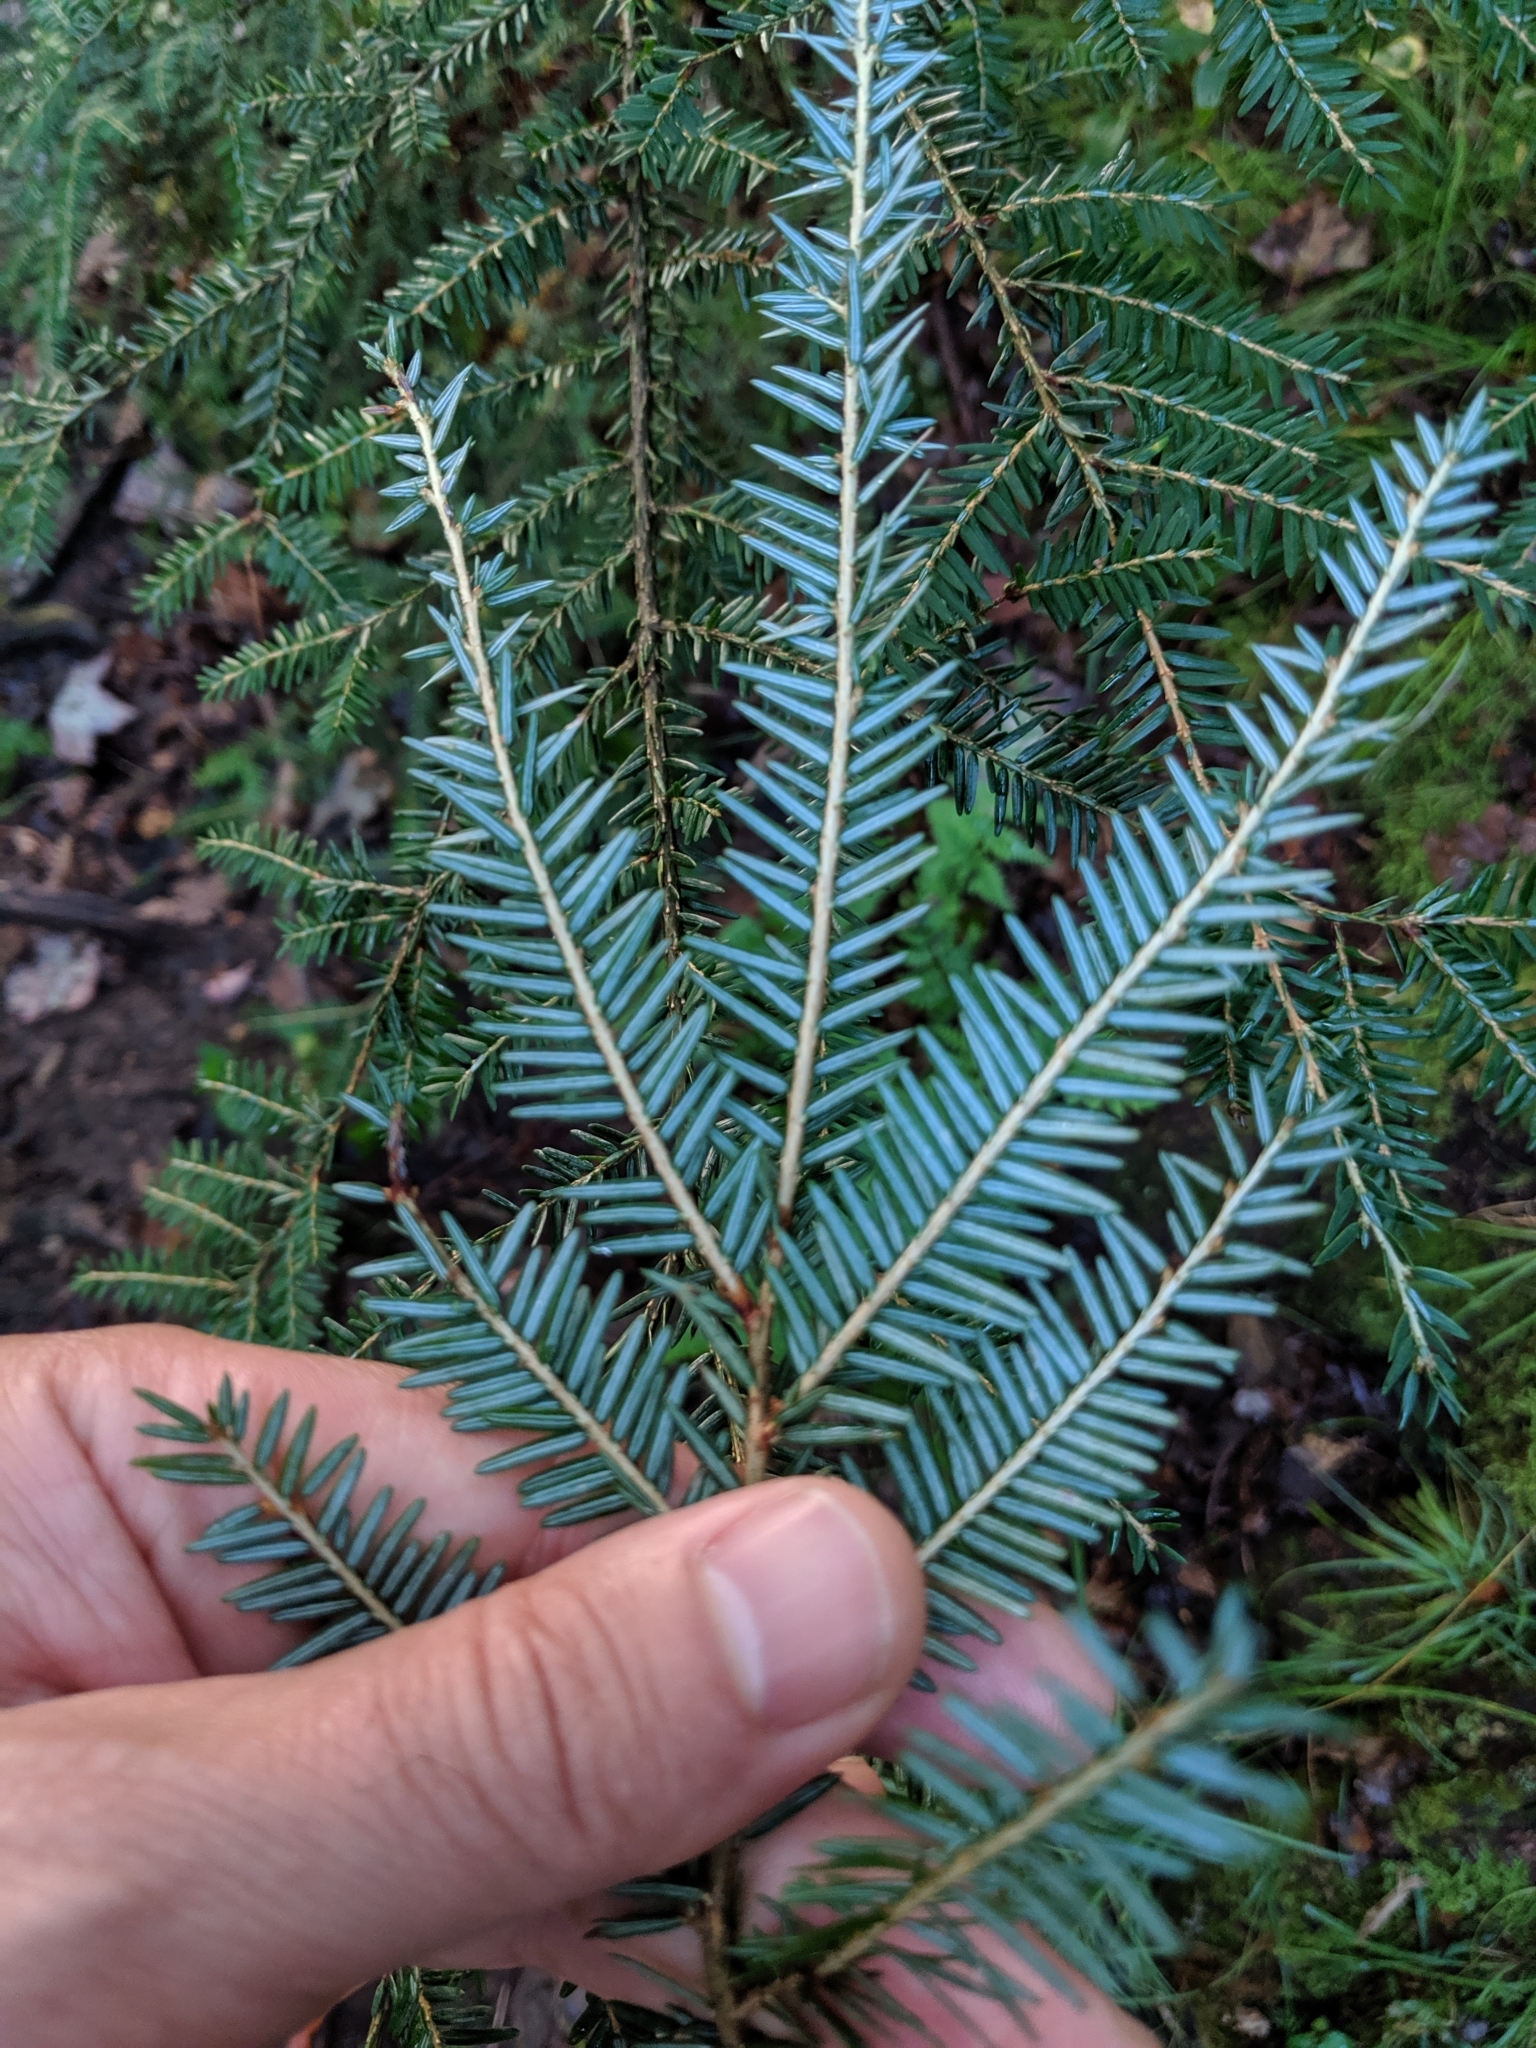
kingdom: Plantae
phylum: Tracheophyta
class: Pinopsida
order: Pinales
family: Pinaceae
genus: Tsuga
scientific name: Tsuga canadensis
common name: Eastern hemlock
